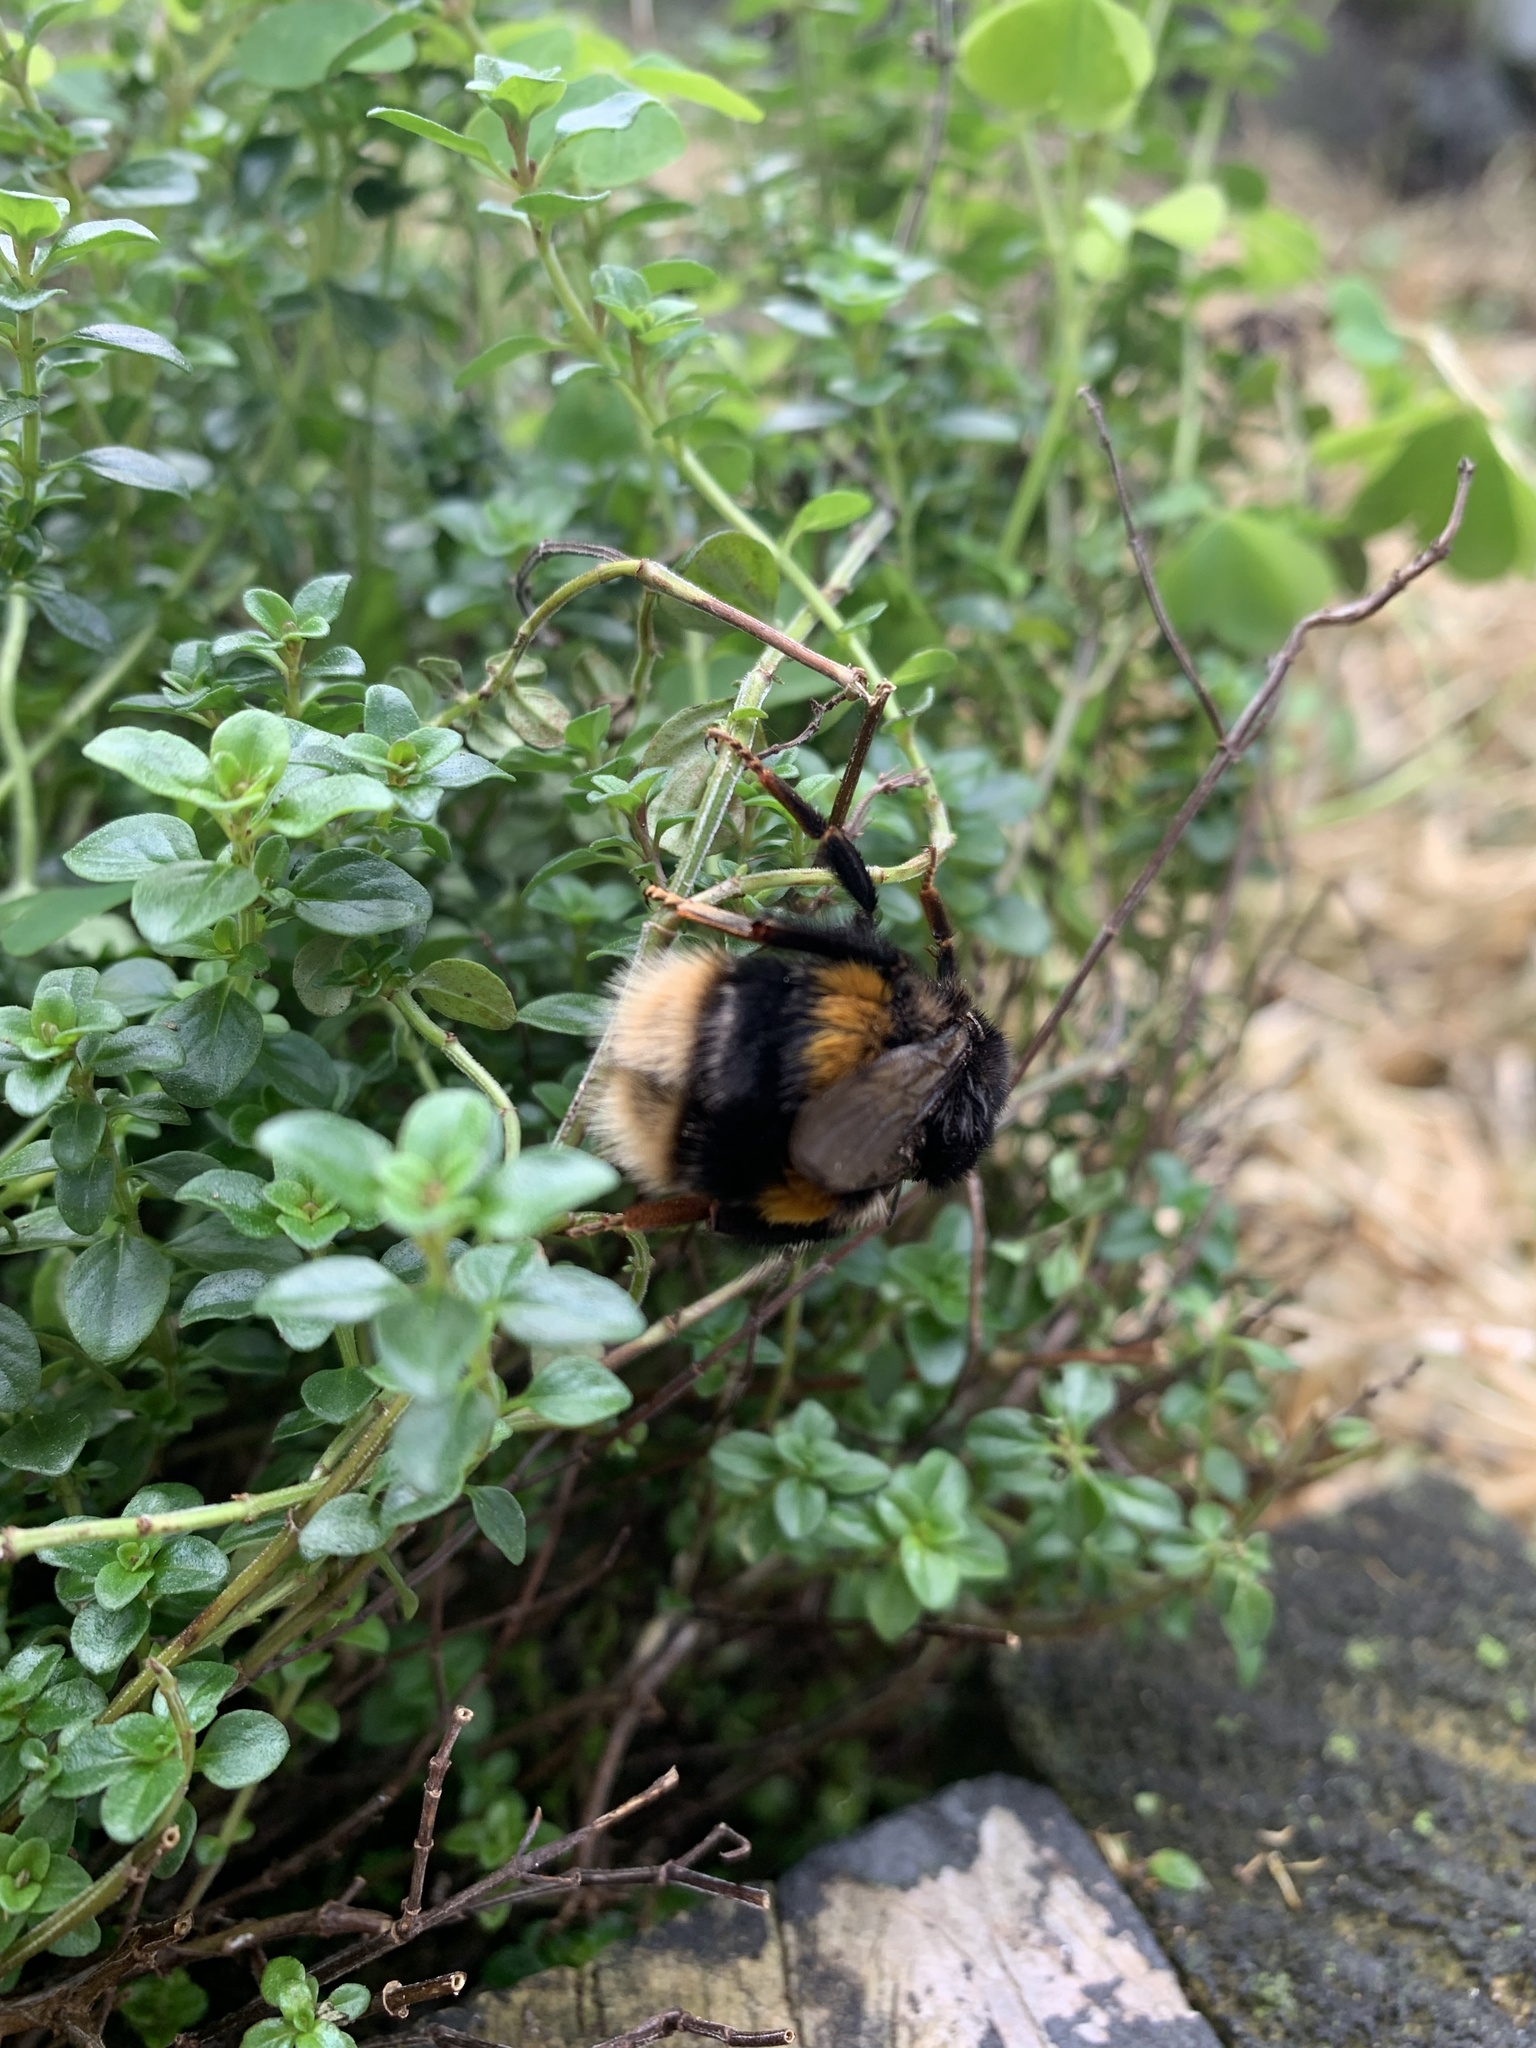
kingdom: Animalia
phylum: Arthropoda
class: Insecta
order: Hymenoptera
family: Apidae
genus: Bombus
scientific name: Bombus terrestris
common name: Buff-tailed bumblebee
